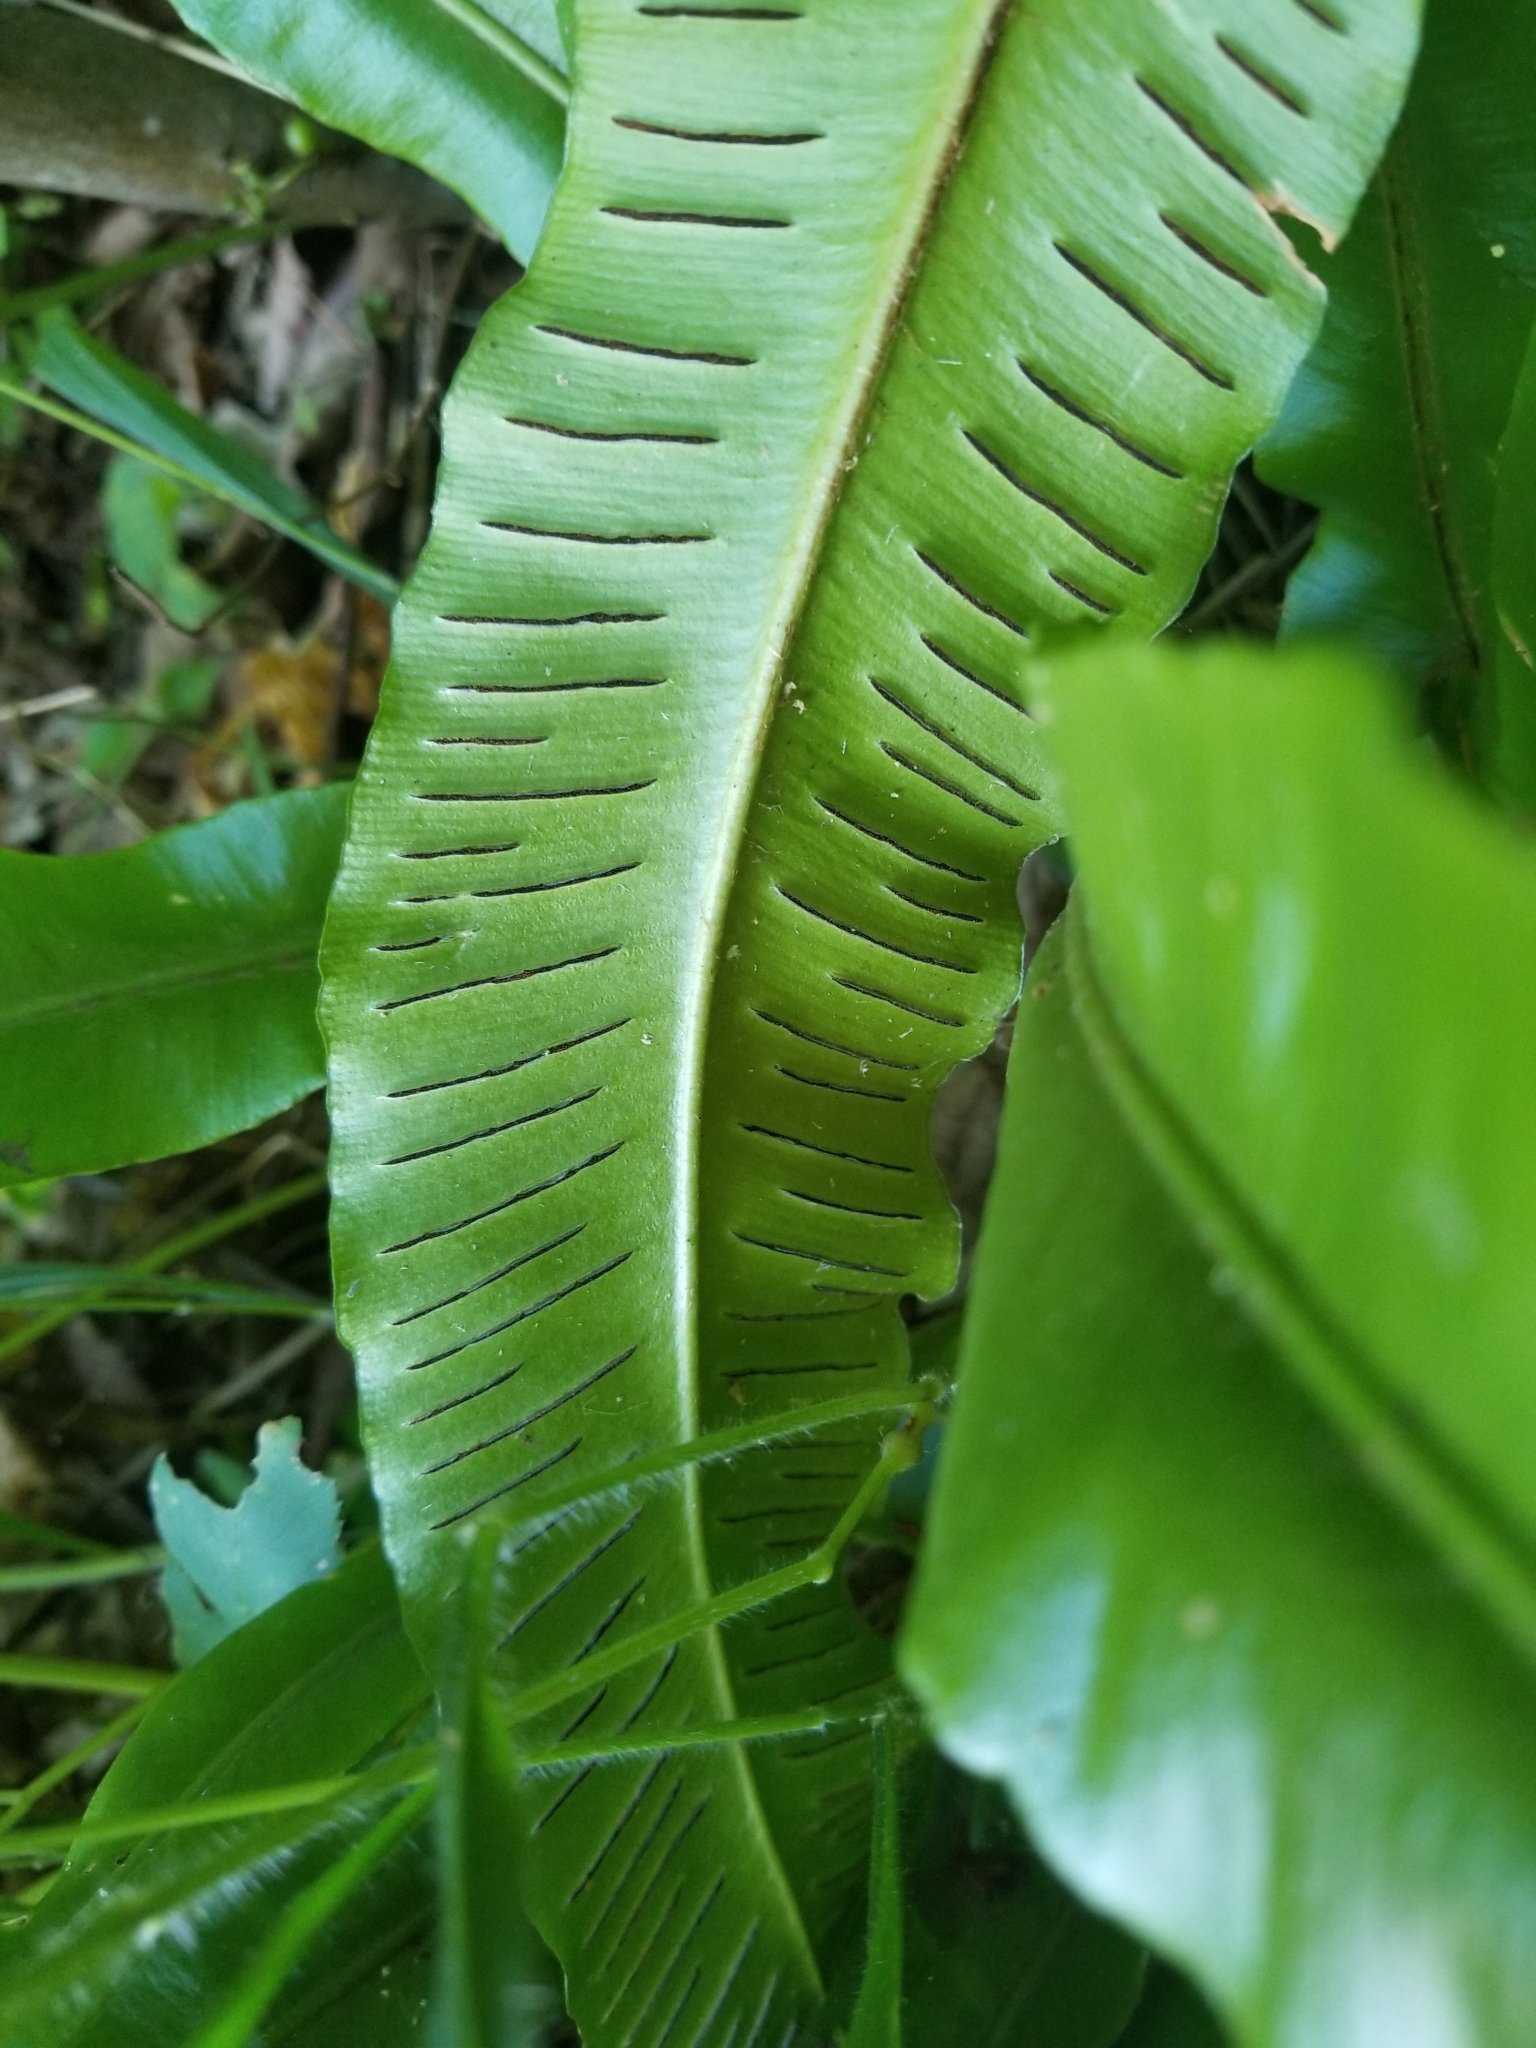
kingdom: Plantae
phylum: Tracheophyta
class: Polypodiopsida
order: Polypodiales
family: Aspleniaceae
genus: Asplenium
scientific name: Asplenium scolopendrium
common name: Hart's-tongue fern
